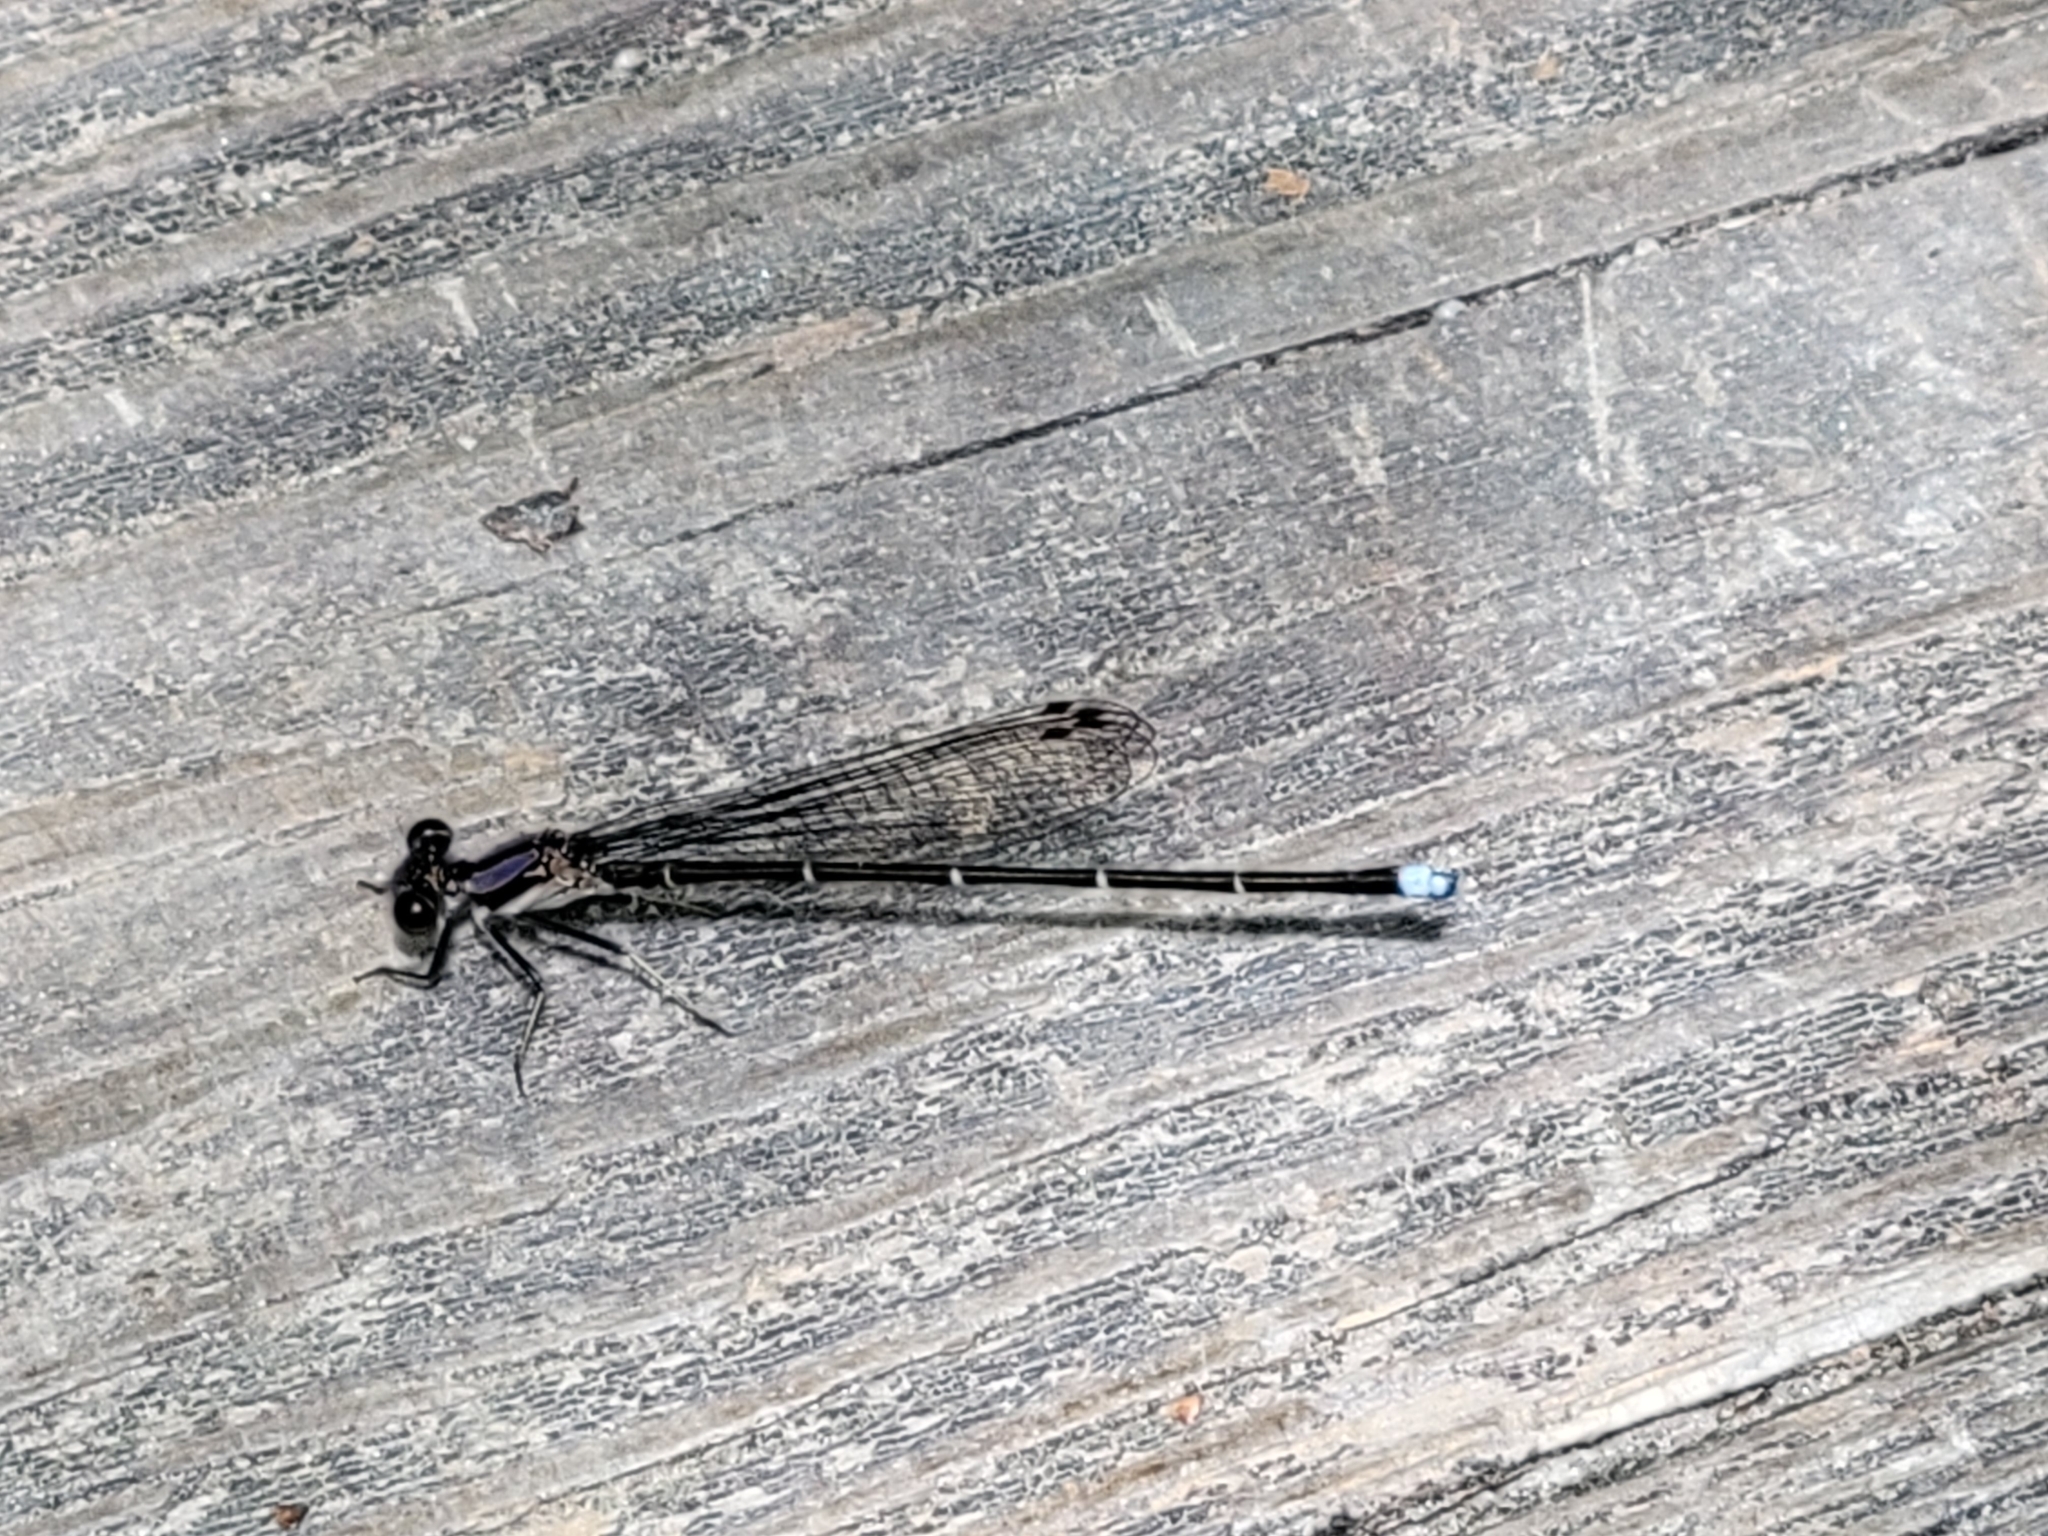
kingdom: Animalia
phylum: Arthropoda
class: Insecta
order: Odonata
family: Coenagrionidae
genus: Argia
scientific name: Argia tibialis
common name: Blue-tipped dancer
